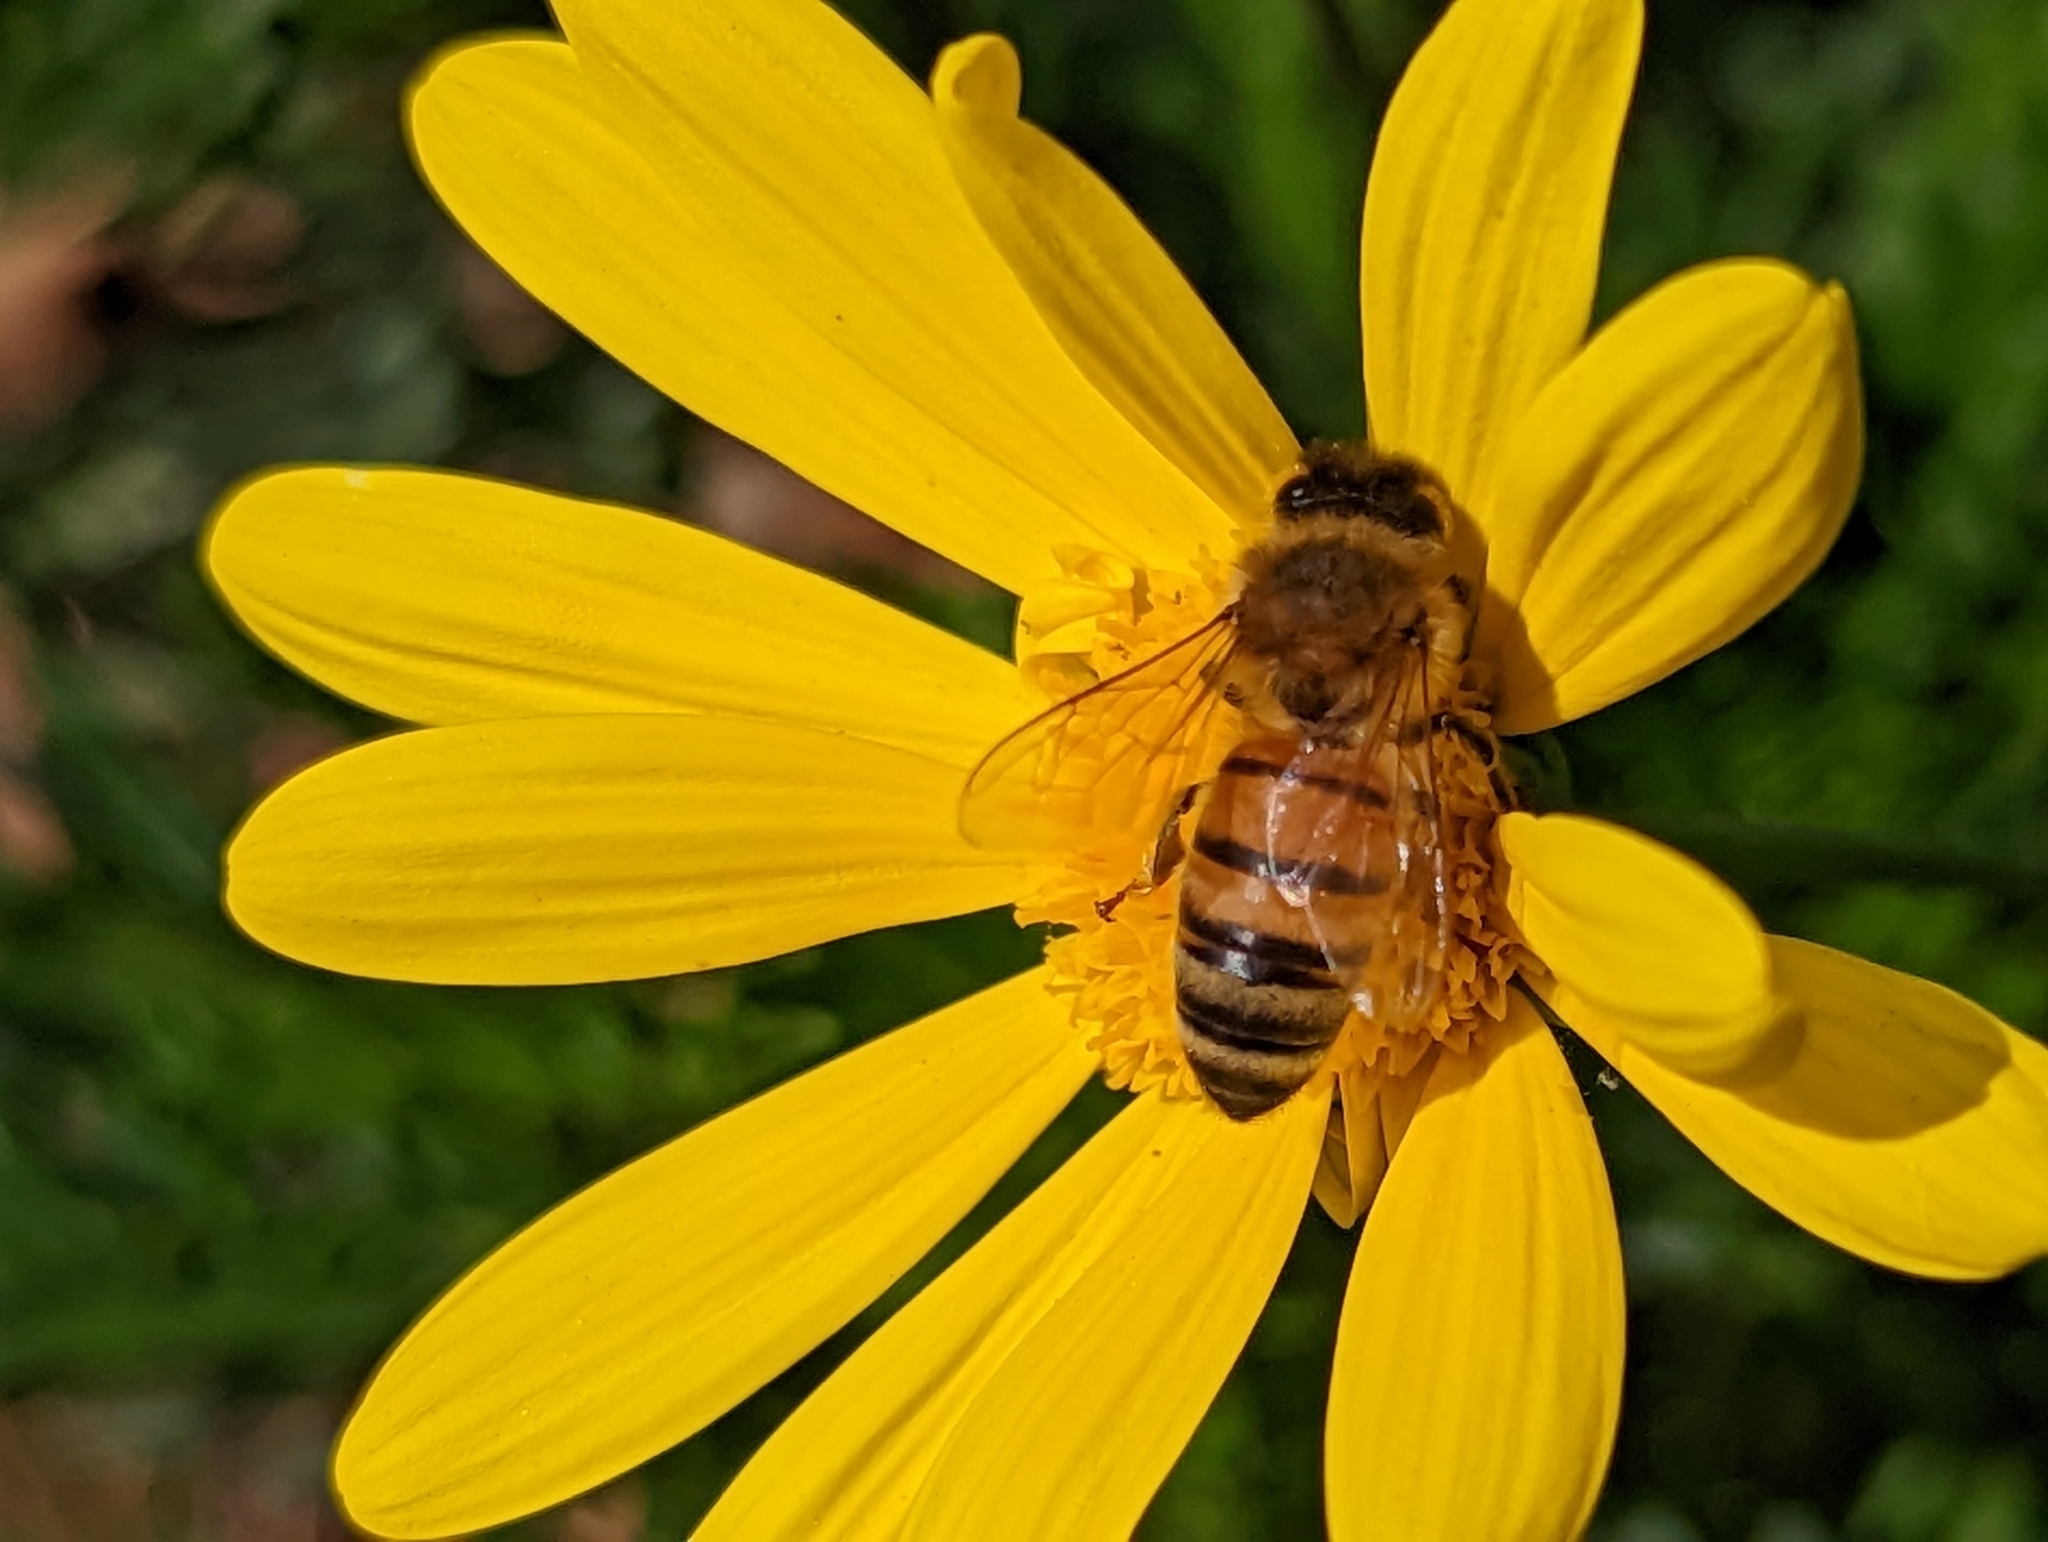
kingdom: Animalia
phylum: Arthropoda
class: Insecta
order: Hymenoptera
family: Apidae
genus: Apis
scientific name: Apis mellifera
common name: Honey bee
